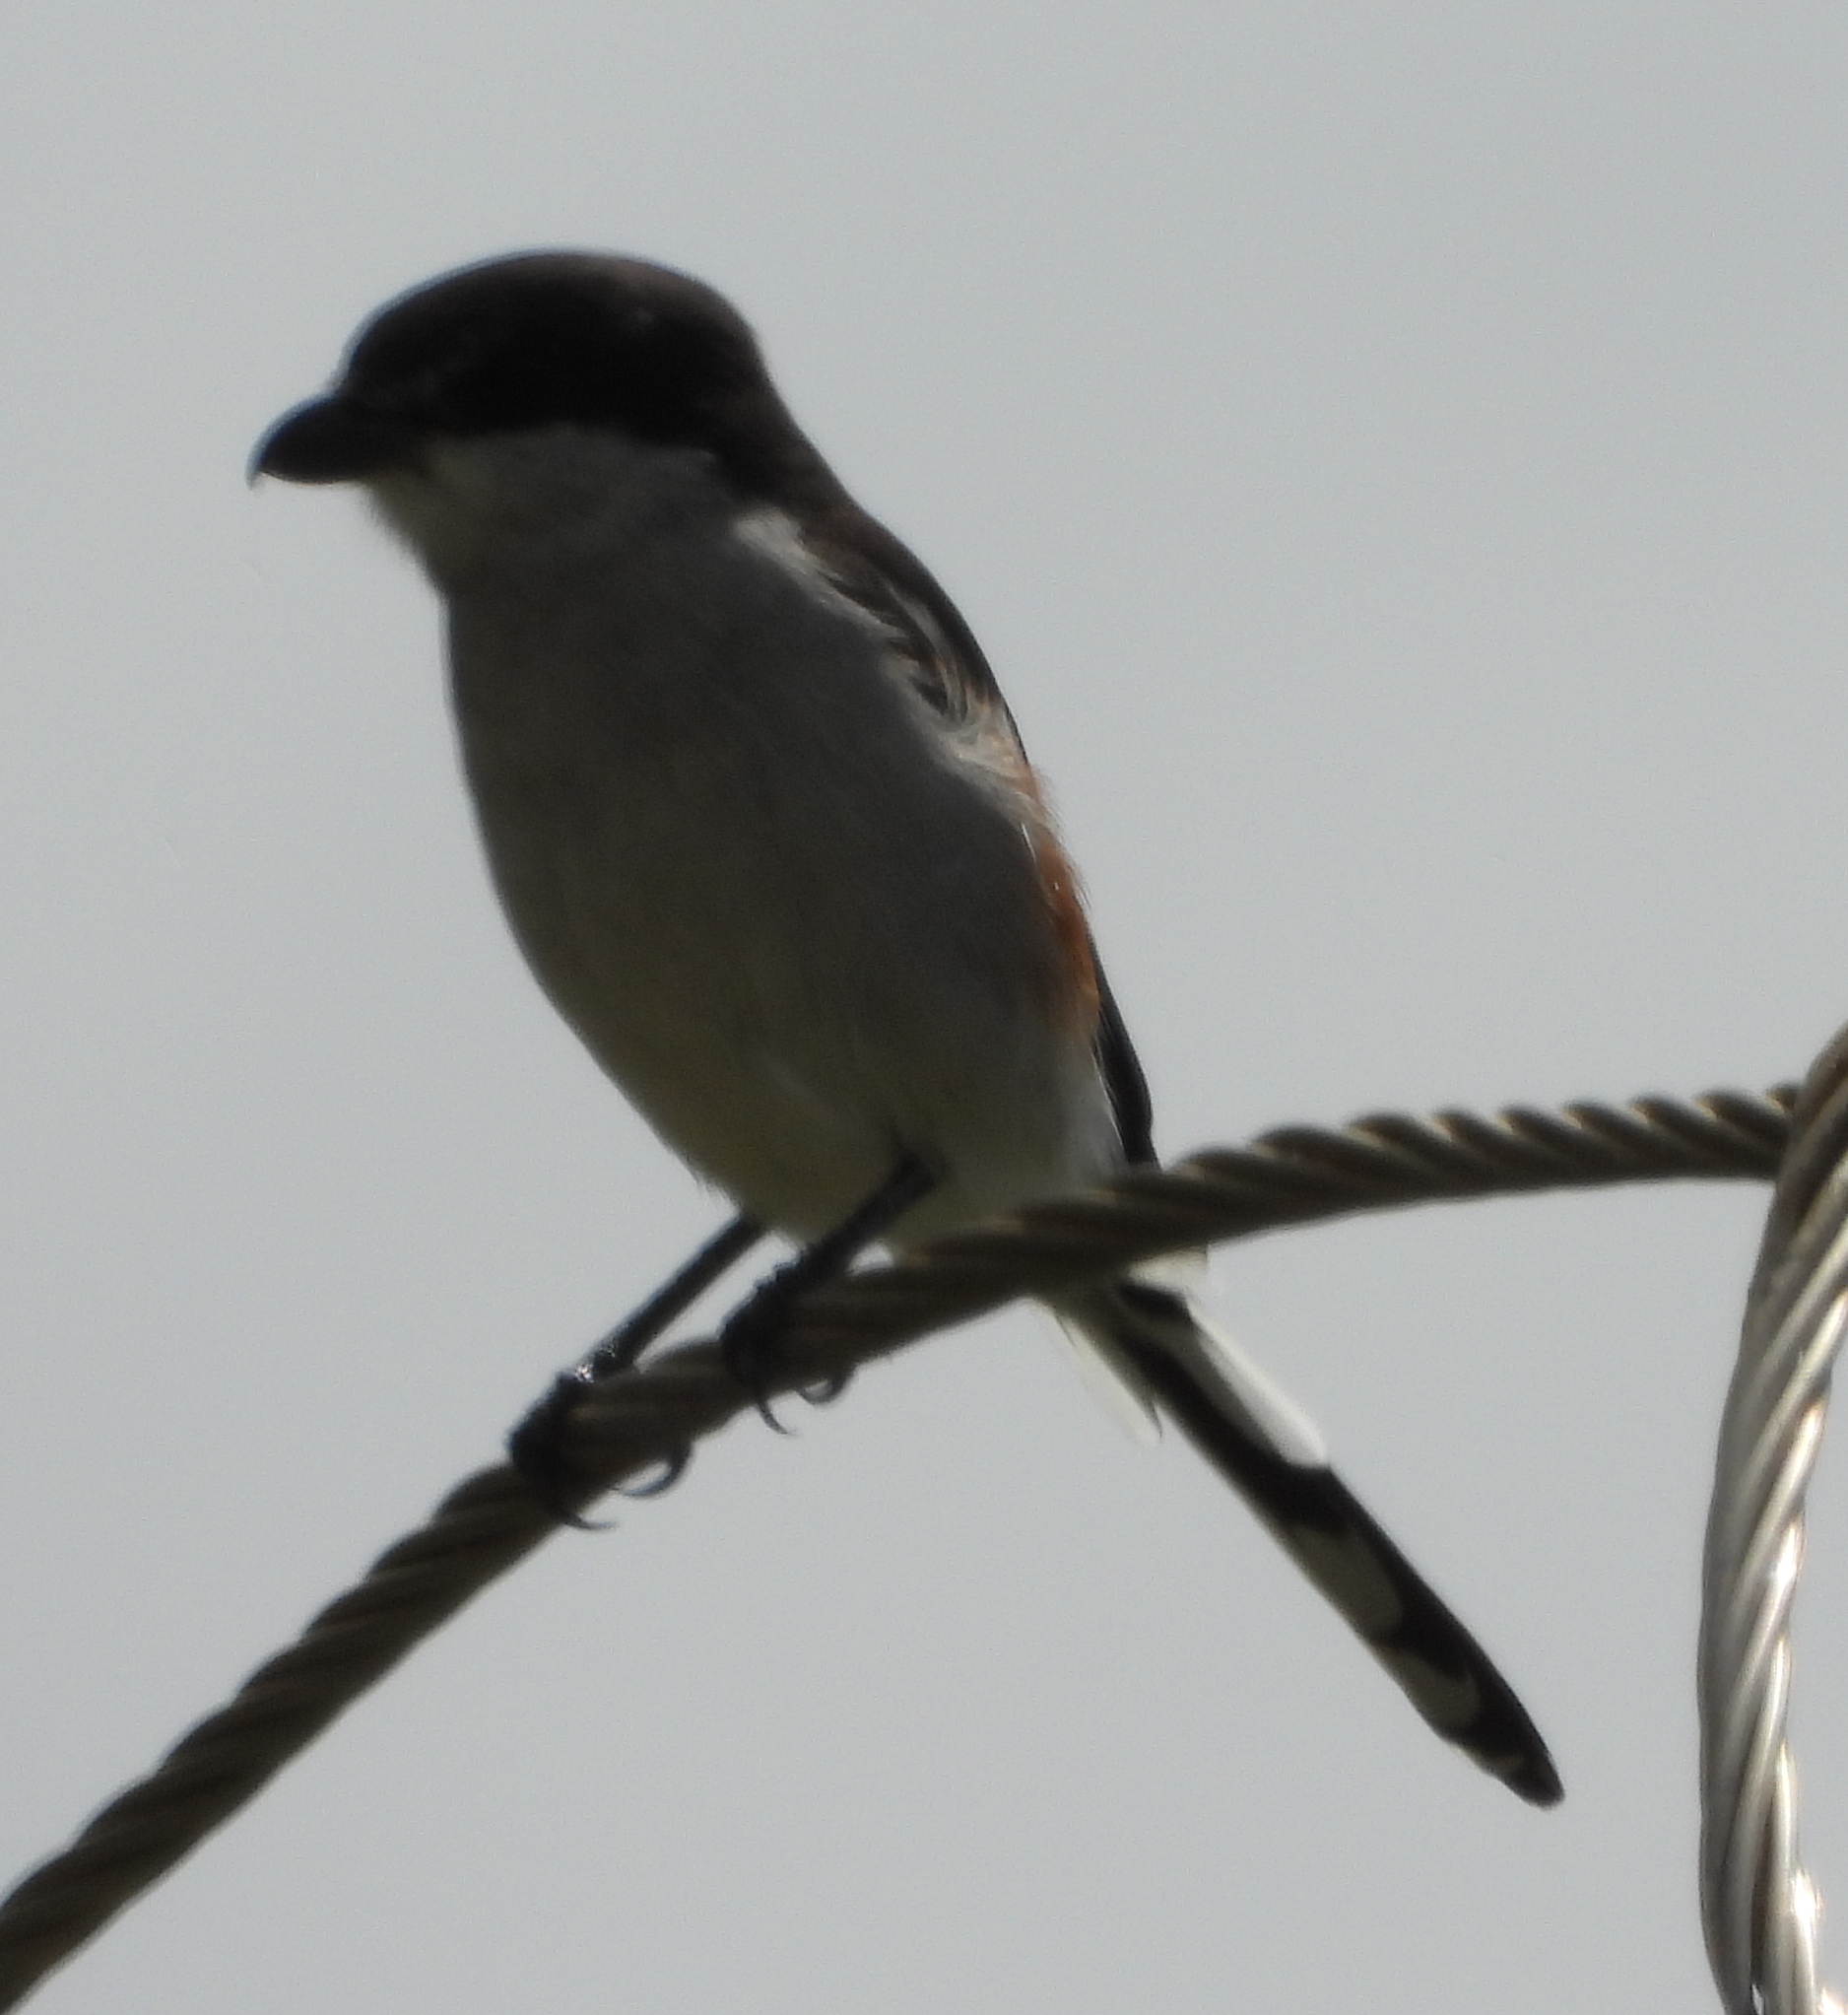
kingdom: Animalia
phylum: Chordata
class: Aves
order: Passeriformes
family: Laniidae
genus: Lanius
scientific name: Lanius collaris
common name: Southern fiscal
